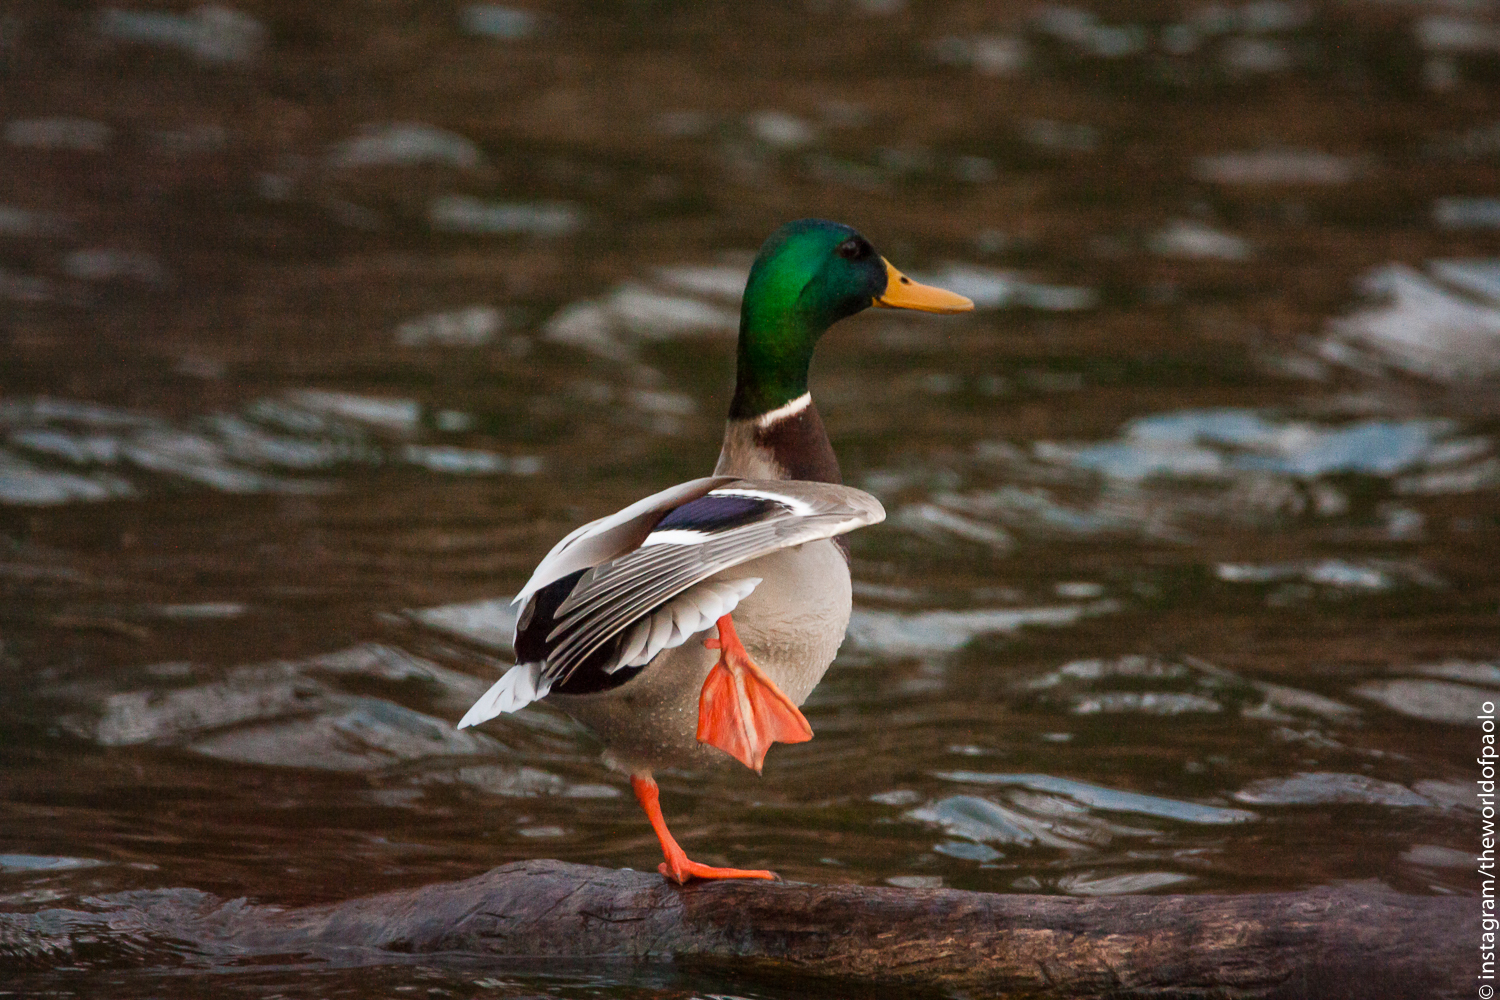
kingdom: Animalia
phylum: Chordata
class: Aves
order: Anseriformes
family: Anatidae
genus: Anas
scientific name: Anas platyrhynchos
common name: Mallard
